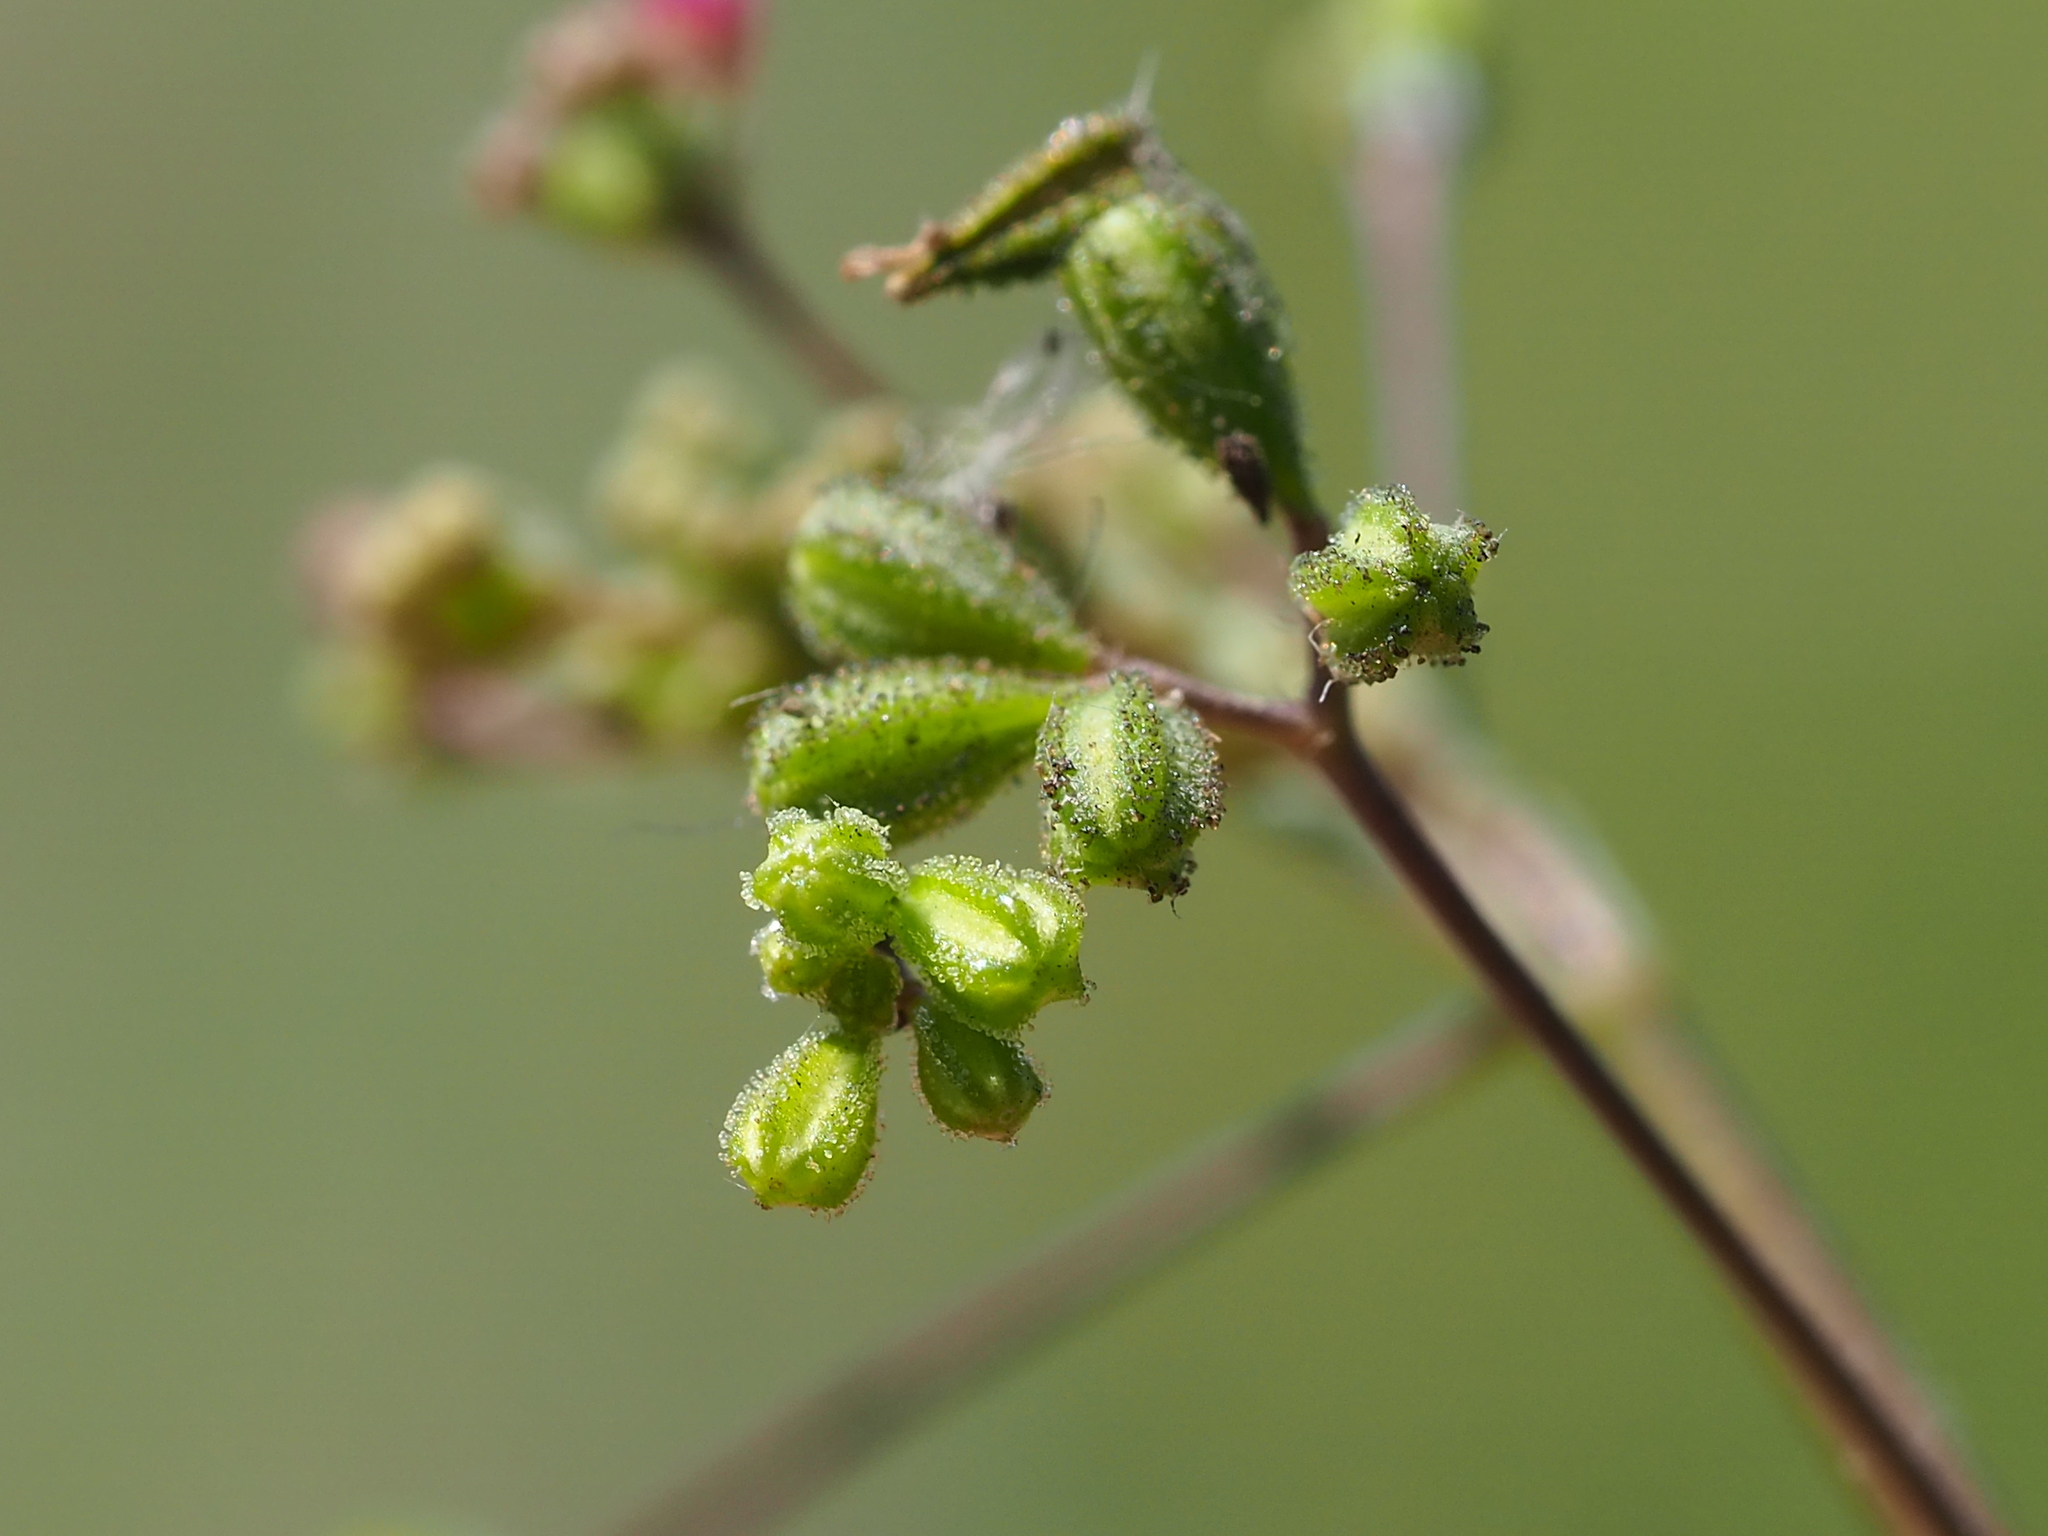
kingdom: Plantae
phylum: Tracheophyta
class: Magnoliopsida
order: Caryophyllales
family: Nyctaginaceae
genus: Boerhavia
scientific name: Boerhavia coccinea
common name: Scarlet spiderling
